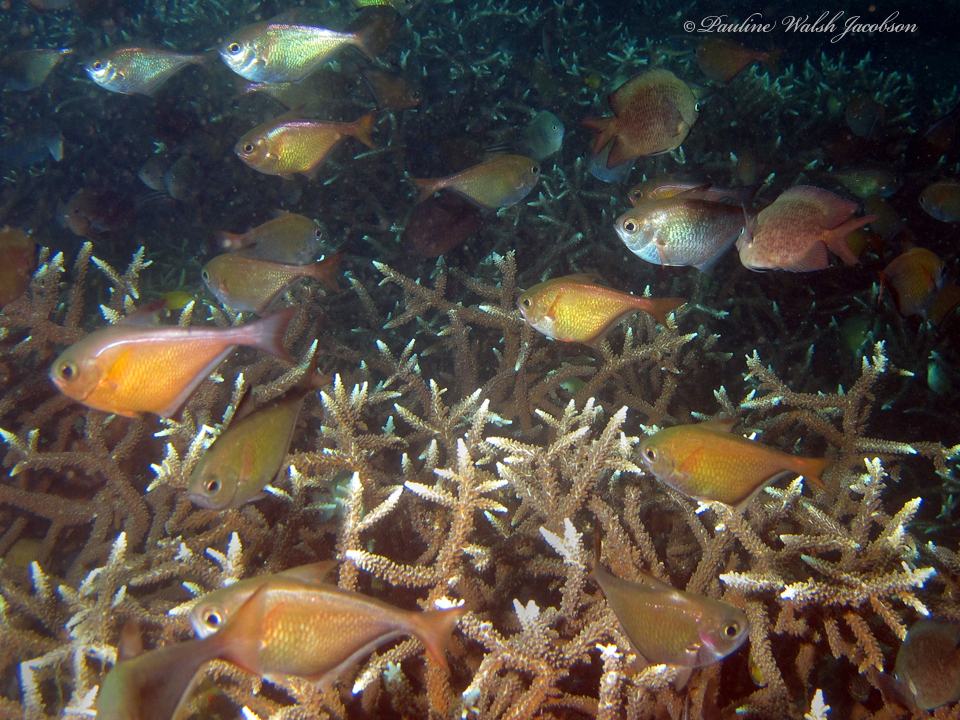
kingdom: Animalia
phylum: Chordata
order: Perciformes
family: Pempheridae
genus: Pempheris
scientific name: Pempheris vanicolensis
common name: Vanikoro sweeper
